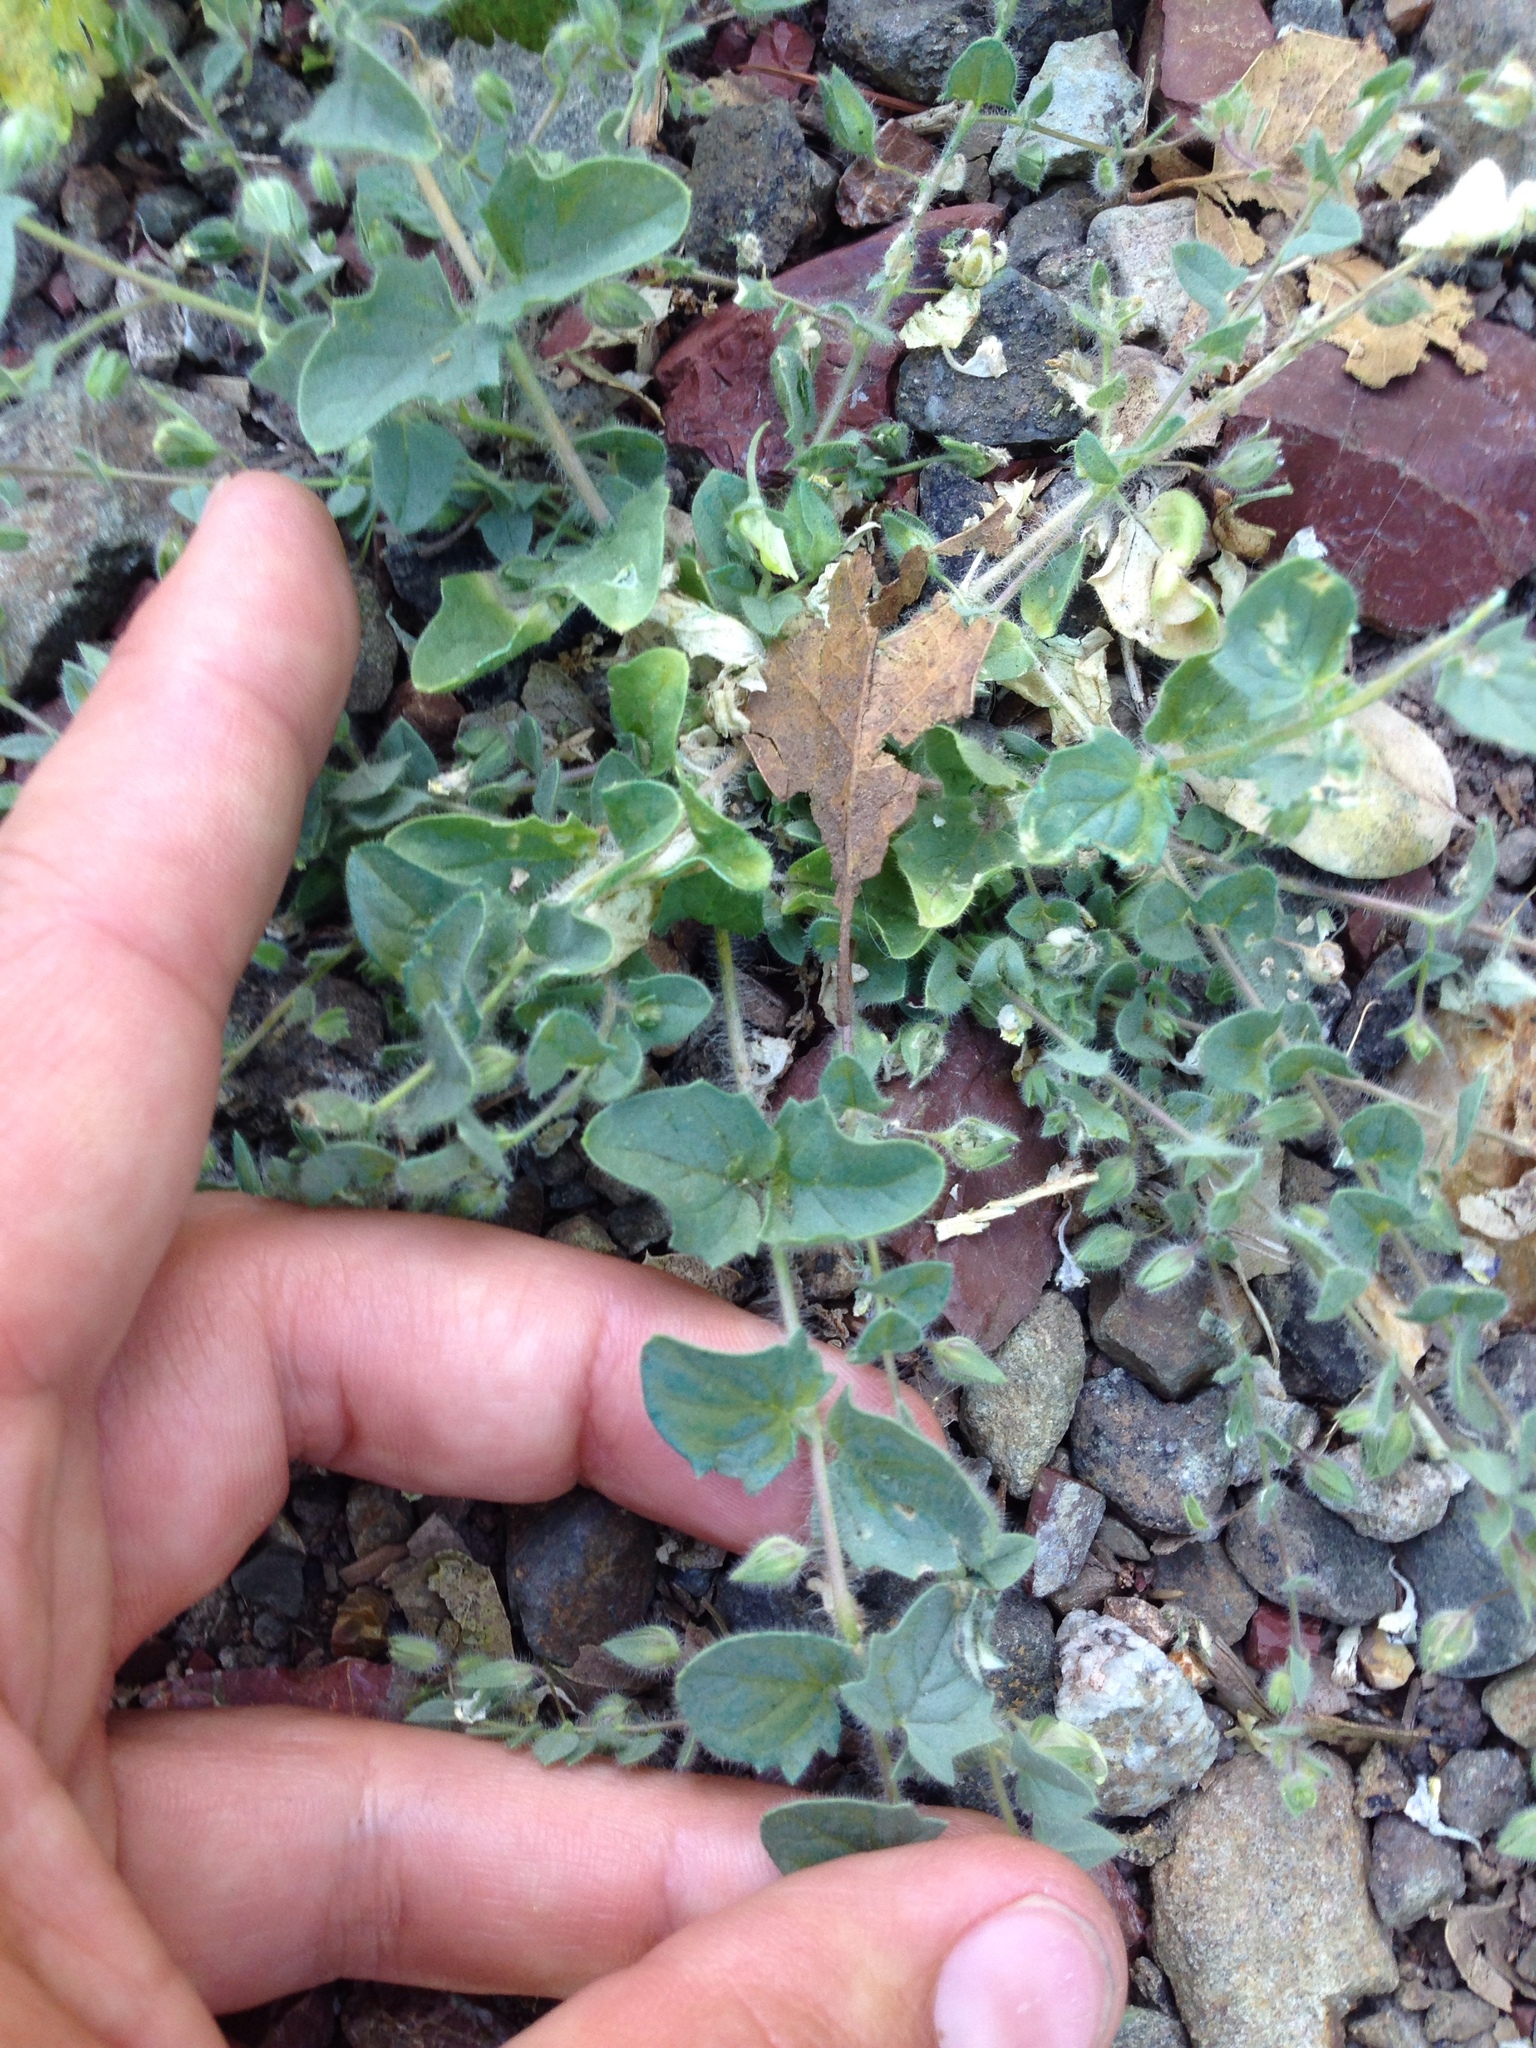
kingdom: Plantae
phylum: Tracheophyta
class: Magnoliopsida
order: Lamiales
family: Plantaginaceae
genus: Kickxia
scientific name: Kickxia elatine
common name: Sharp-leaved fluellen
